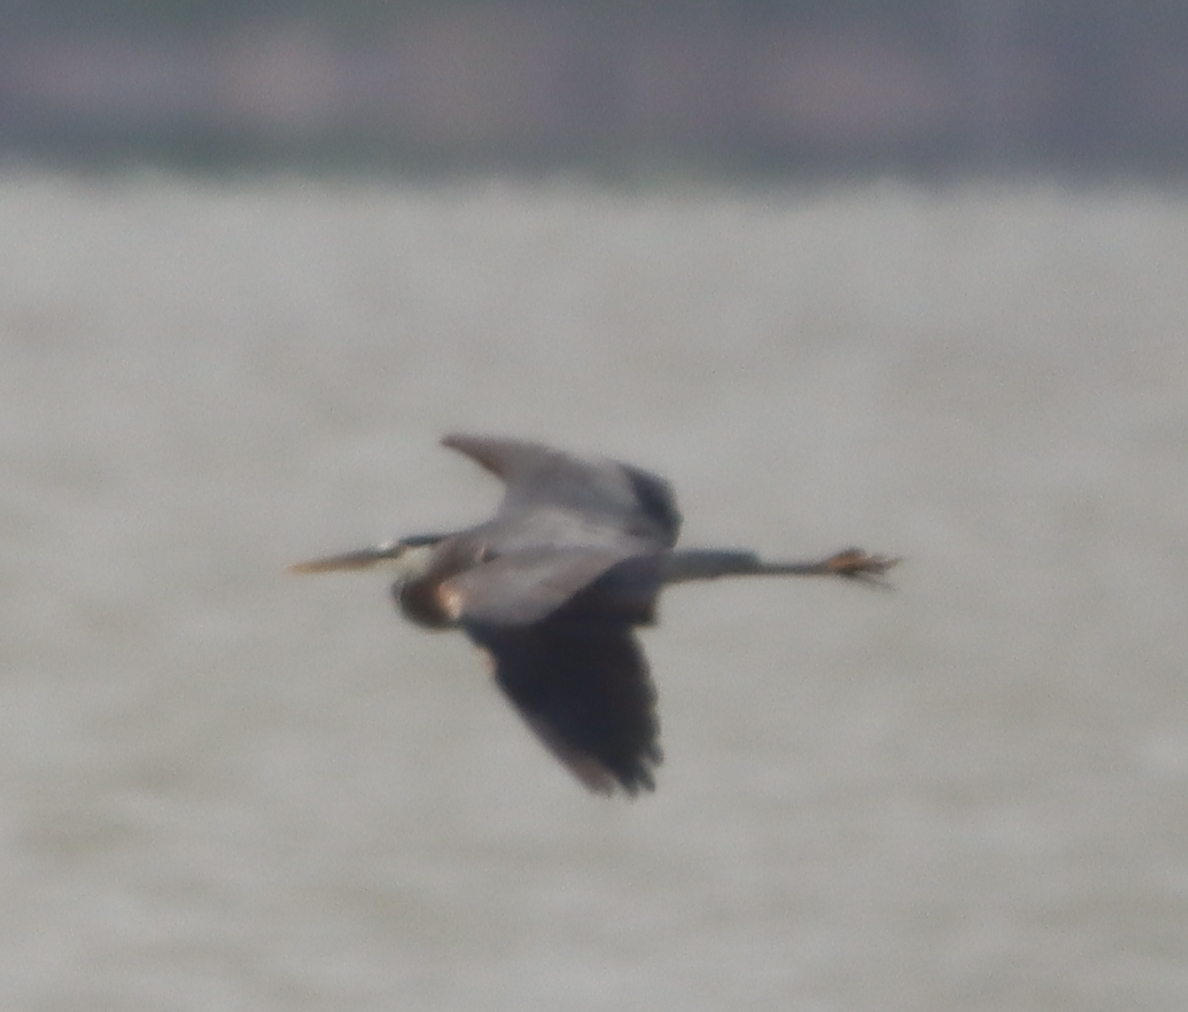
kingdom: Animalia
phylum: Chordata
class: Aves
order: Pelecaniformes
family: Ardeidae
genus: Ardea
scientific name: Ardea herodias
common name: Great blue heron
